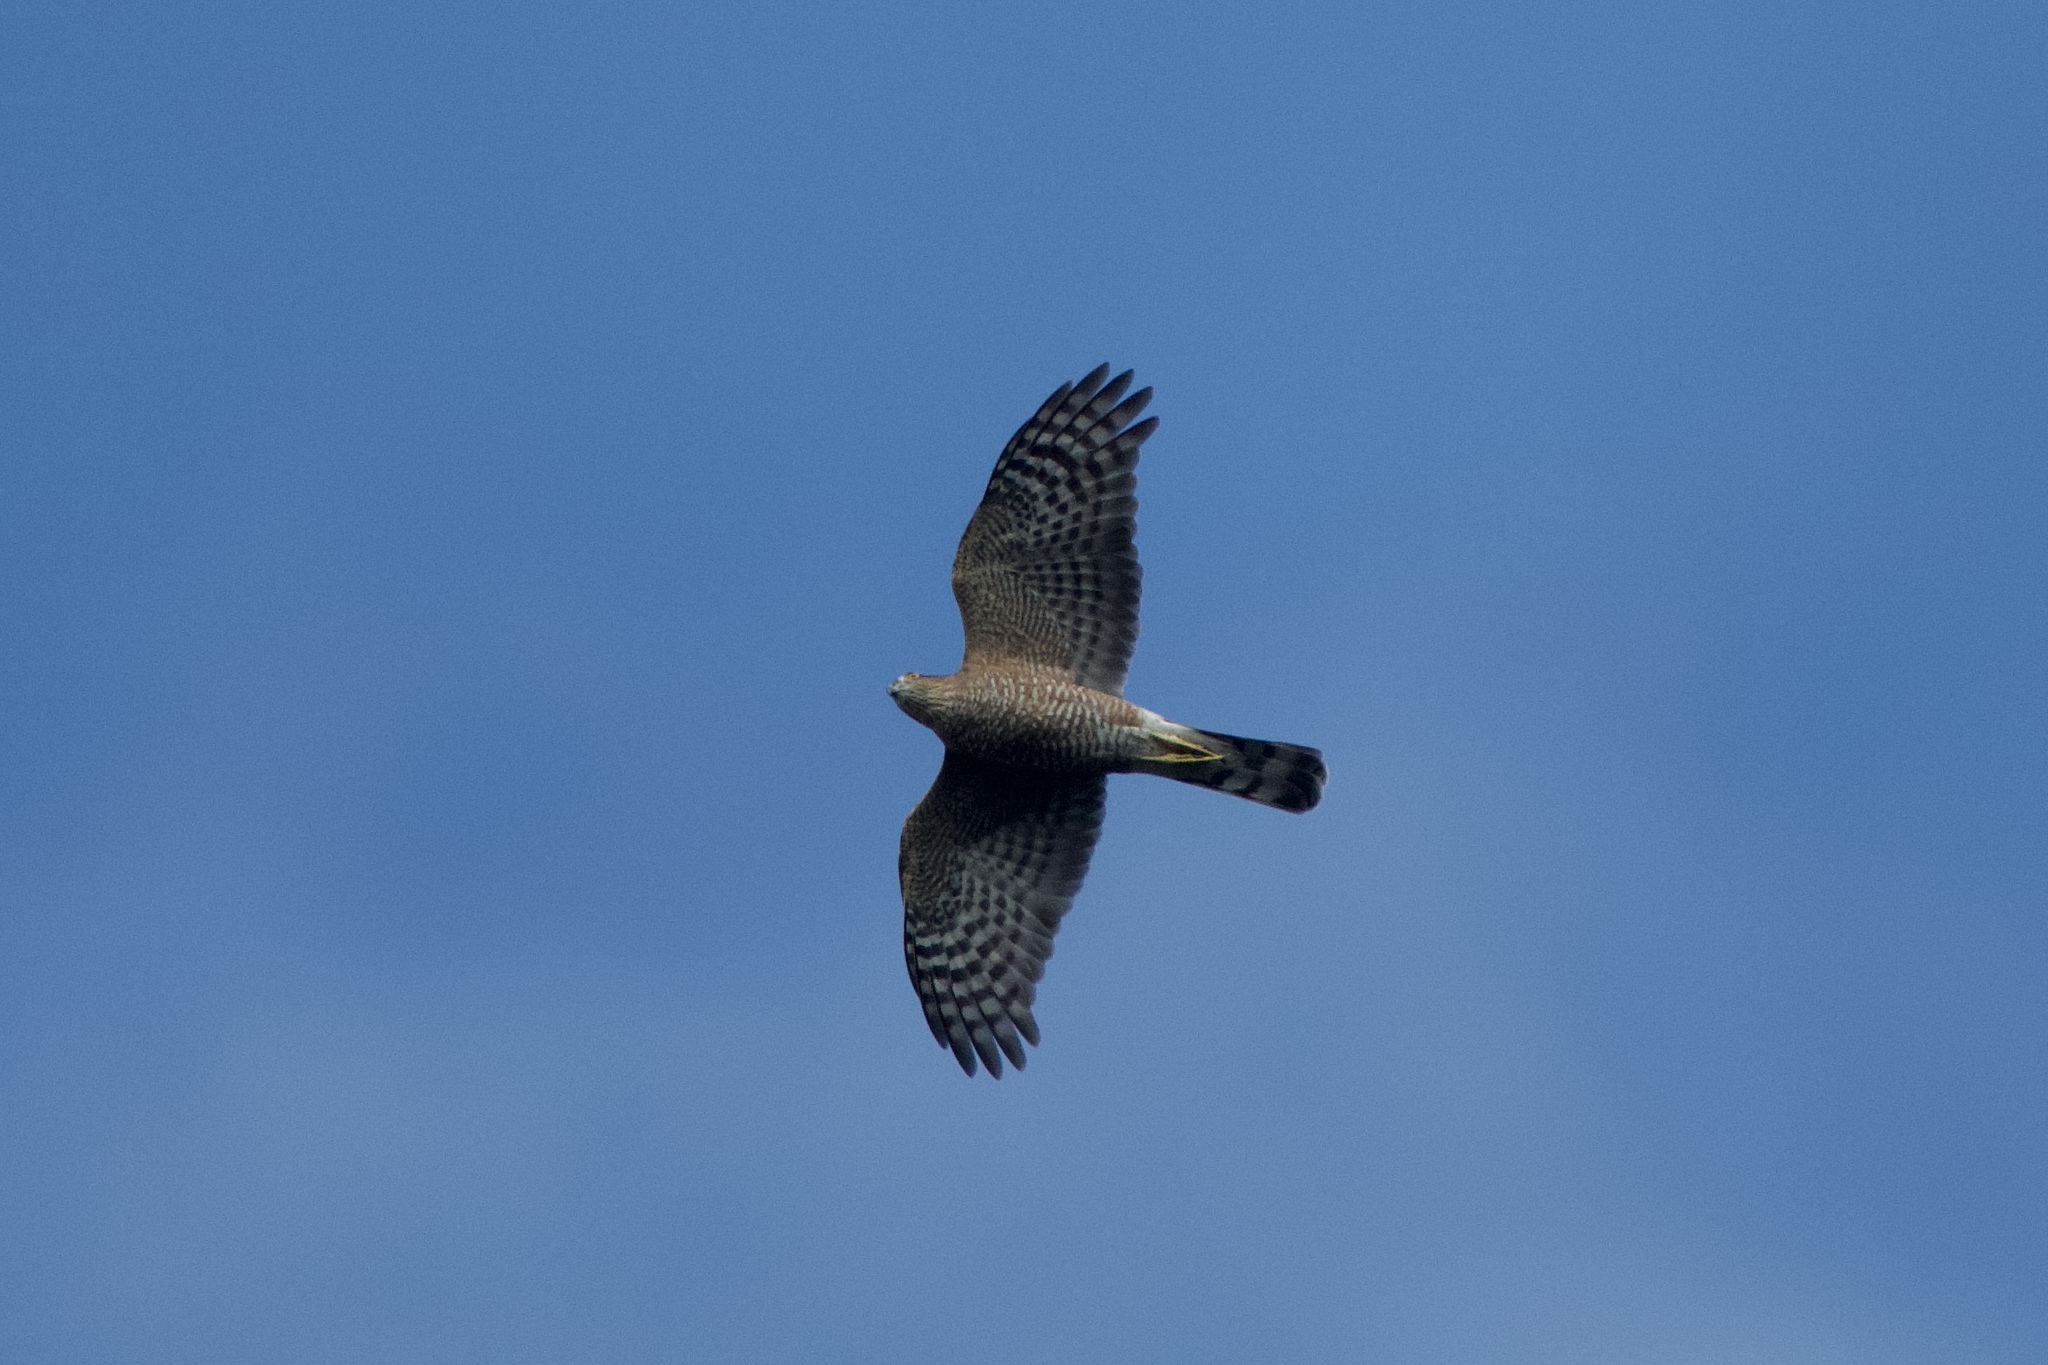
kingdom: Animalia
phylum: Chordata
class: Aves
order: Accipitriformes
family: Accipitridae
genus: Accipiter
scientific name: Accipiter striatus
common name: Sharp-shinned hawk
